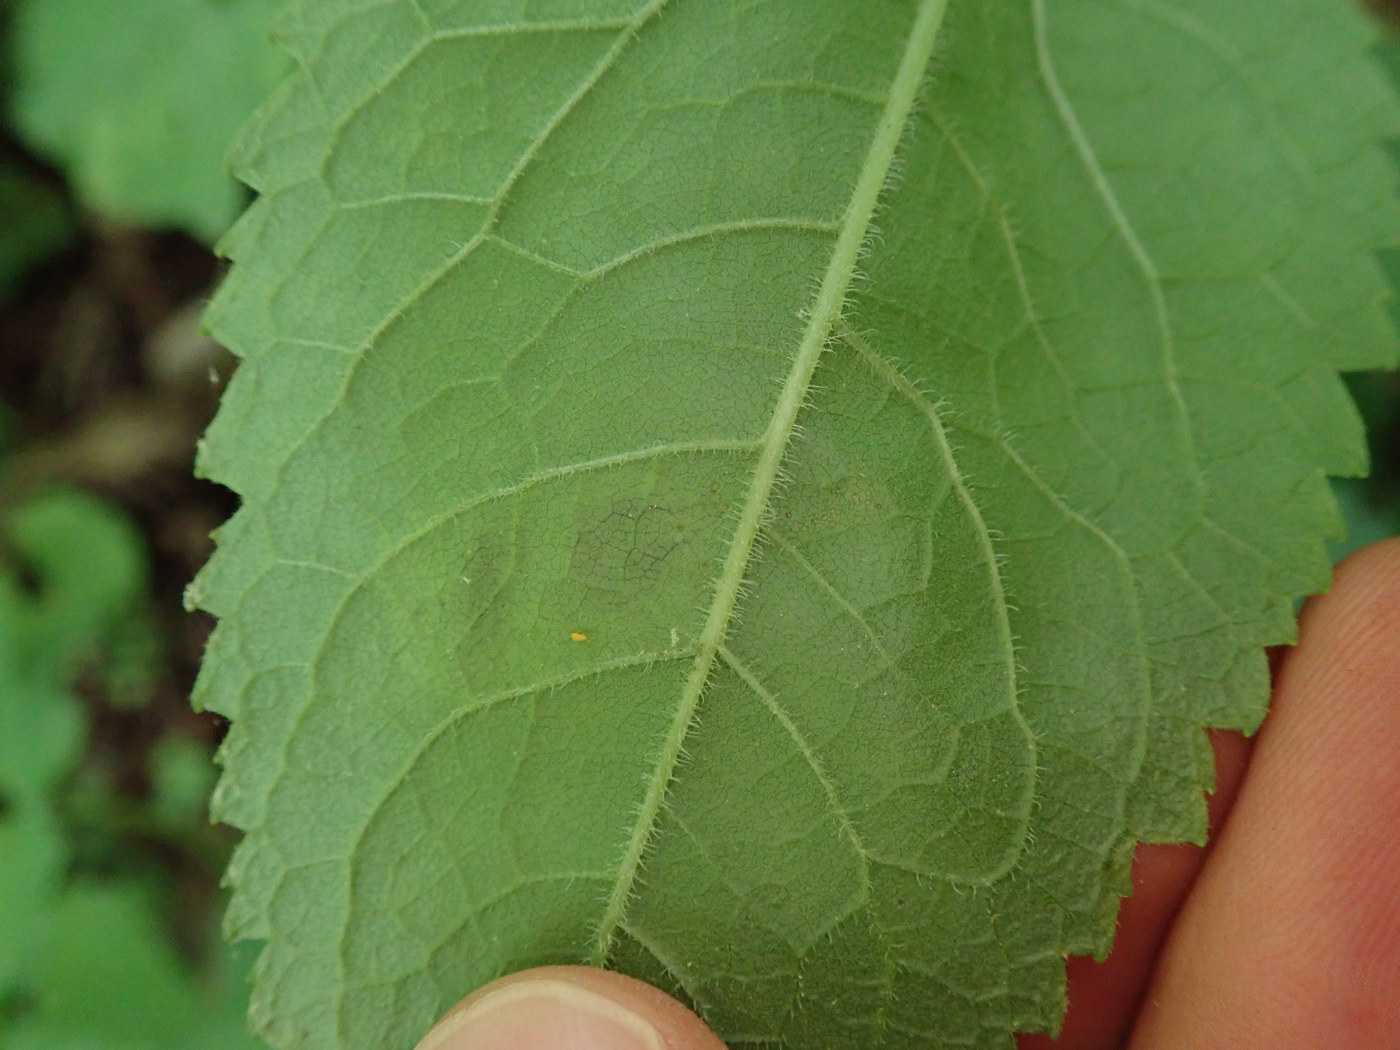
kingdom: Animalia
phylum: Arthropoda
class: Insecta
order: Diptera
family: Agromyzidae
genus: Calycomyza
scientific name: Calycomyza flavinotum
